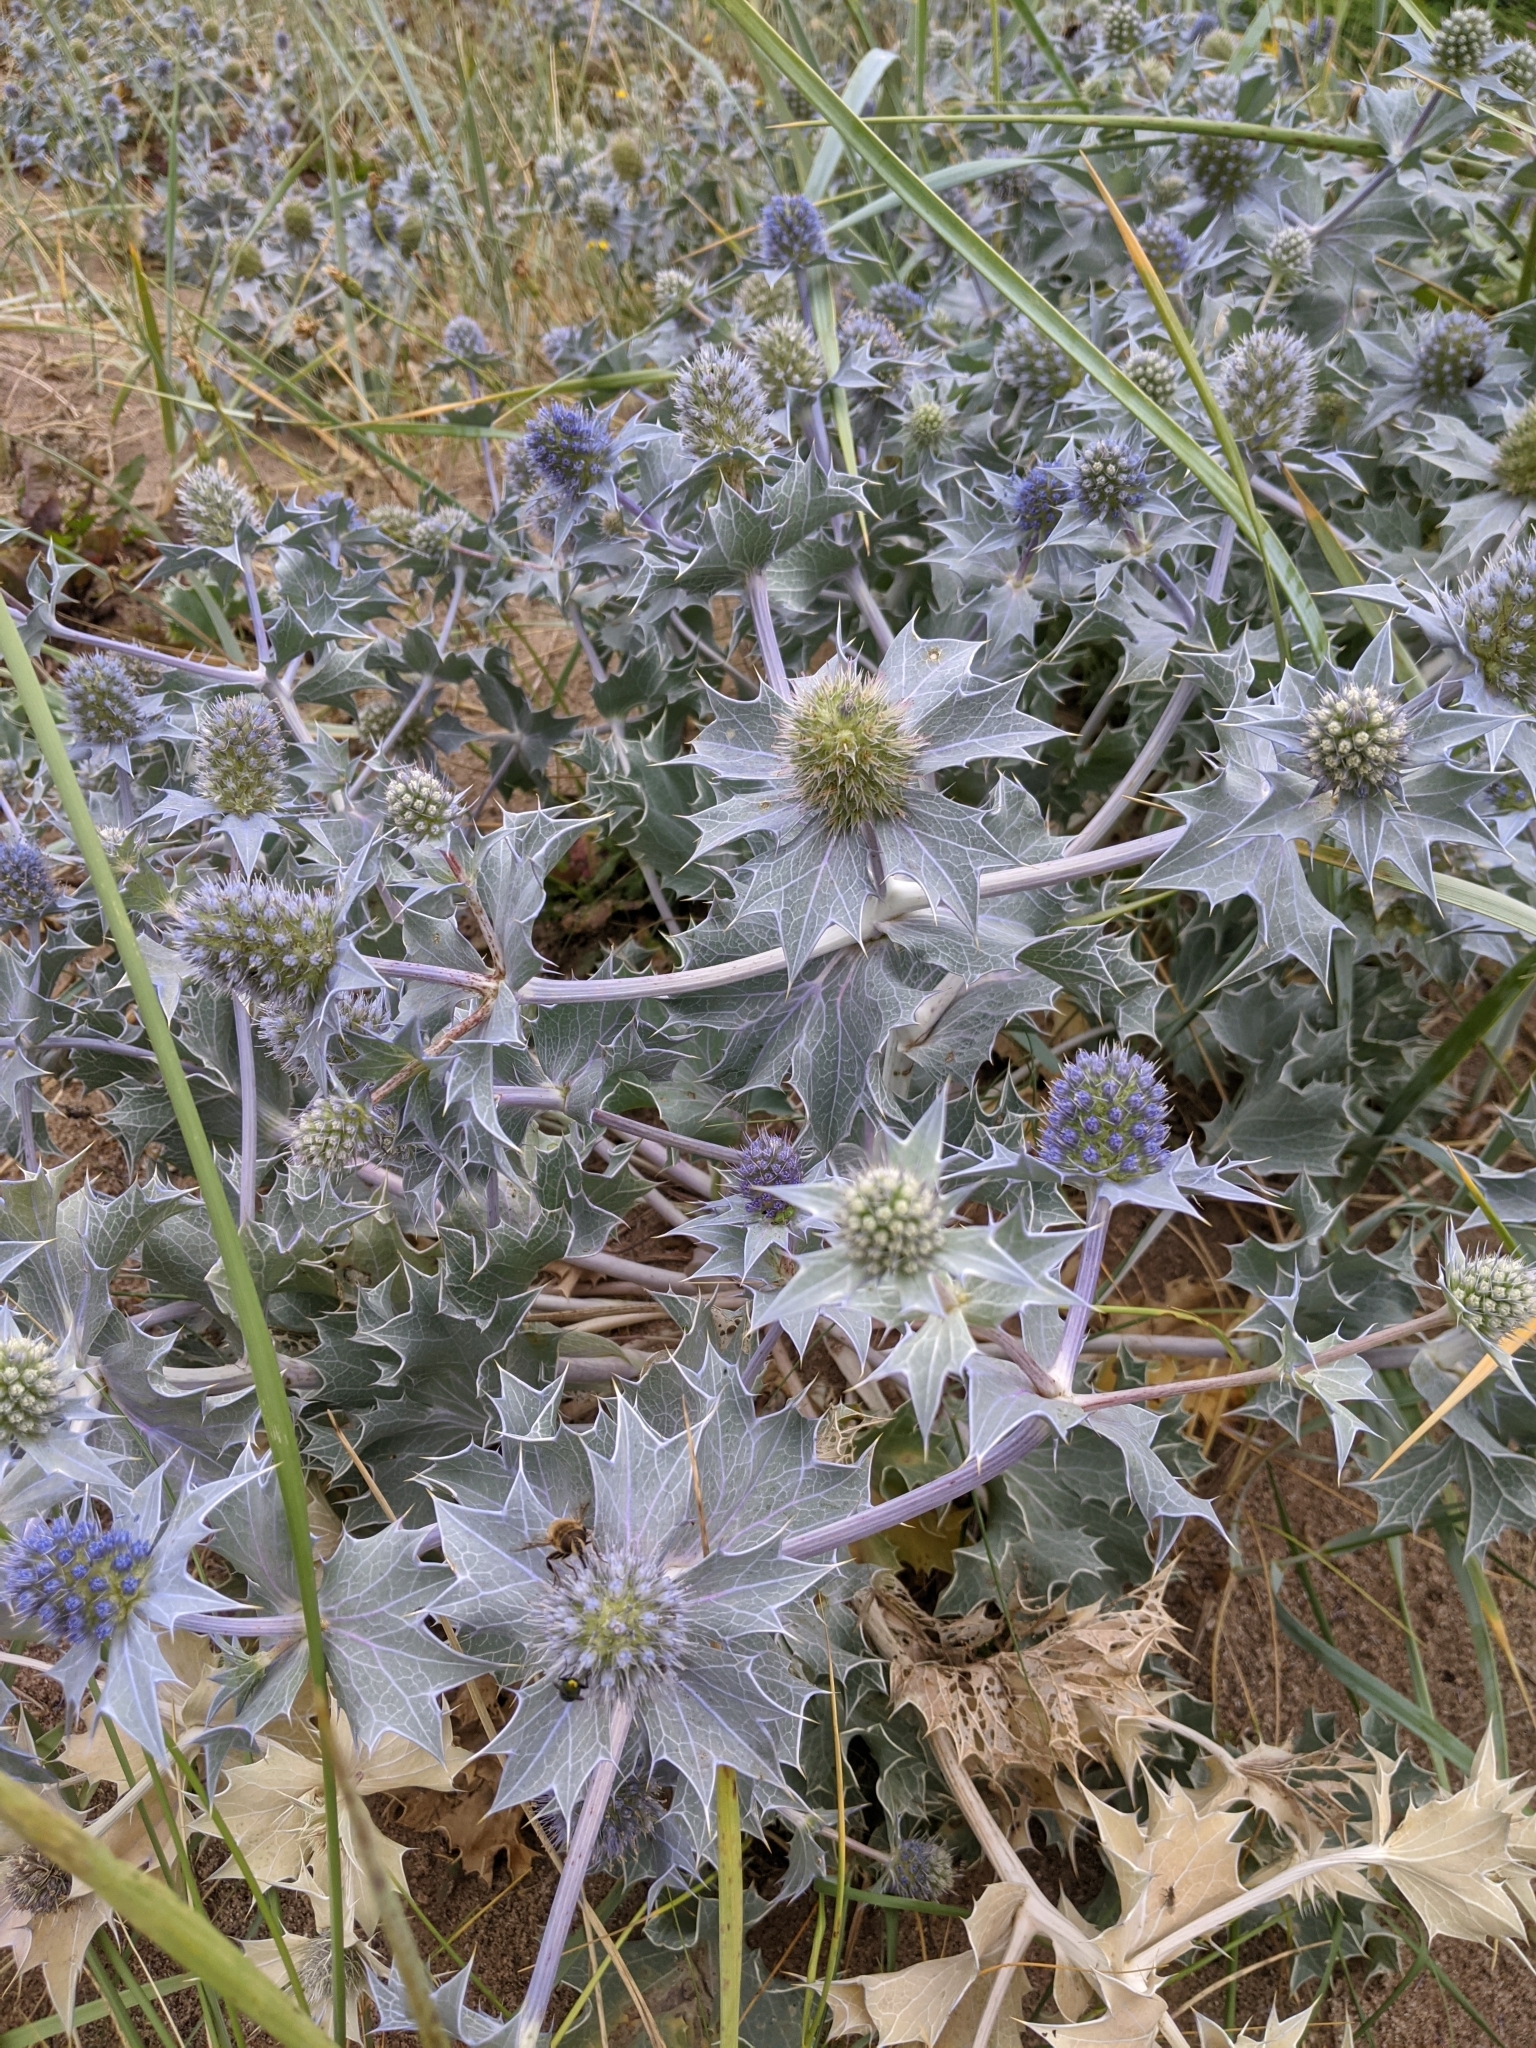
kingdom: Plantae
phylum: Tracheophyta
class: Magnoliopsida
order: Apiales
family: Apiaceae
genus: Eryngium
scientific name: Eryngium maritimum
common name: Sea-holly
